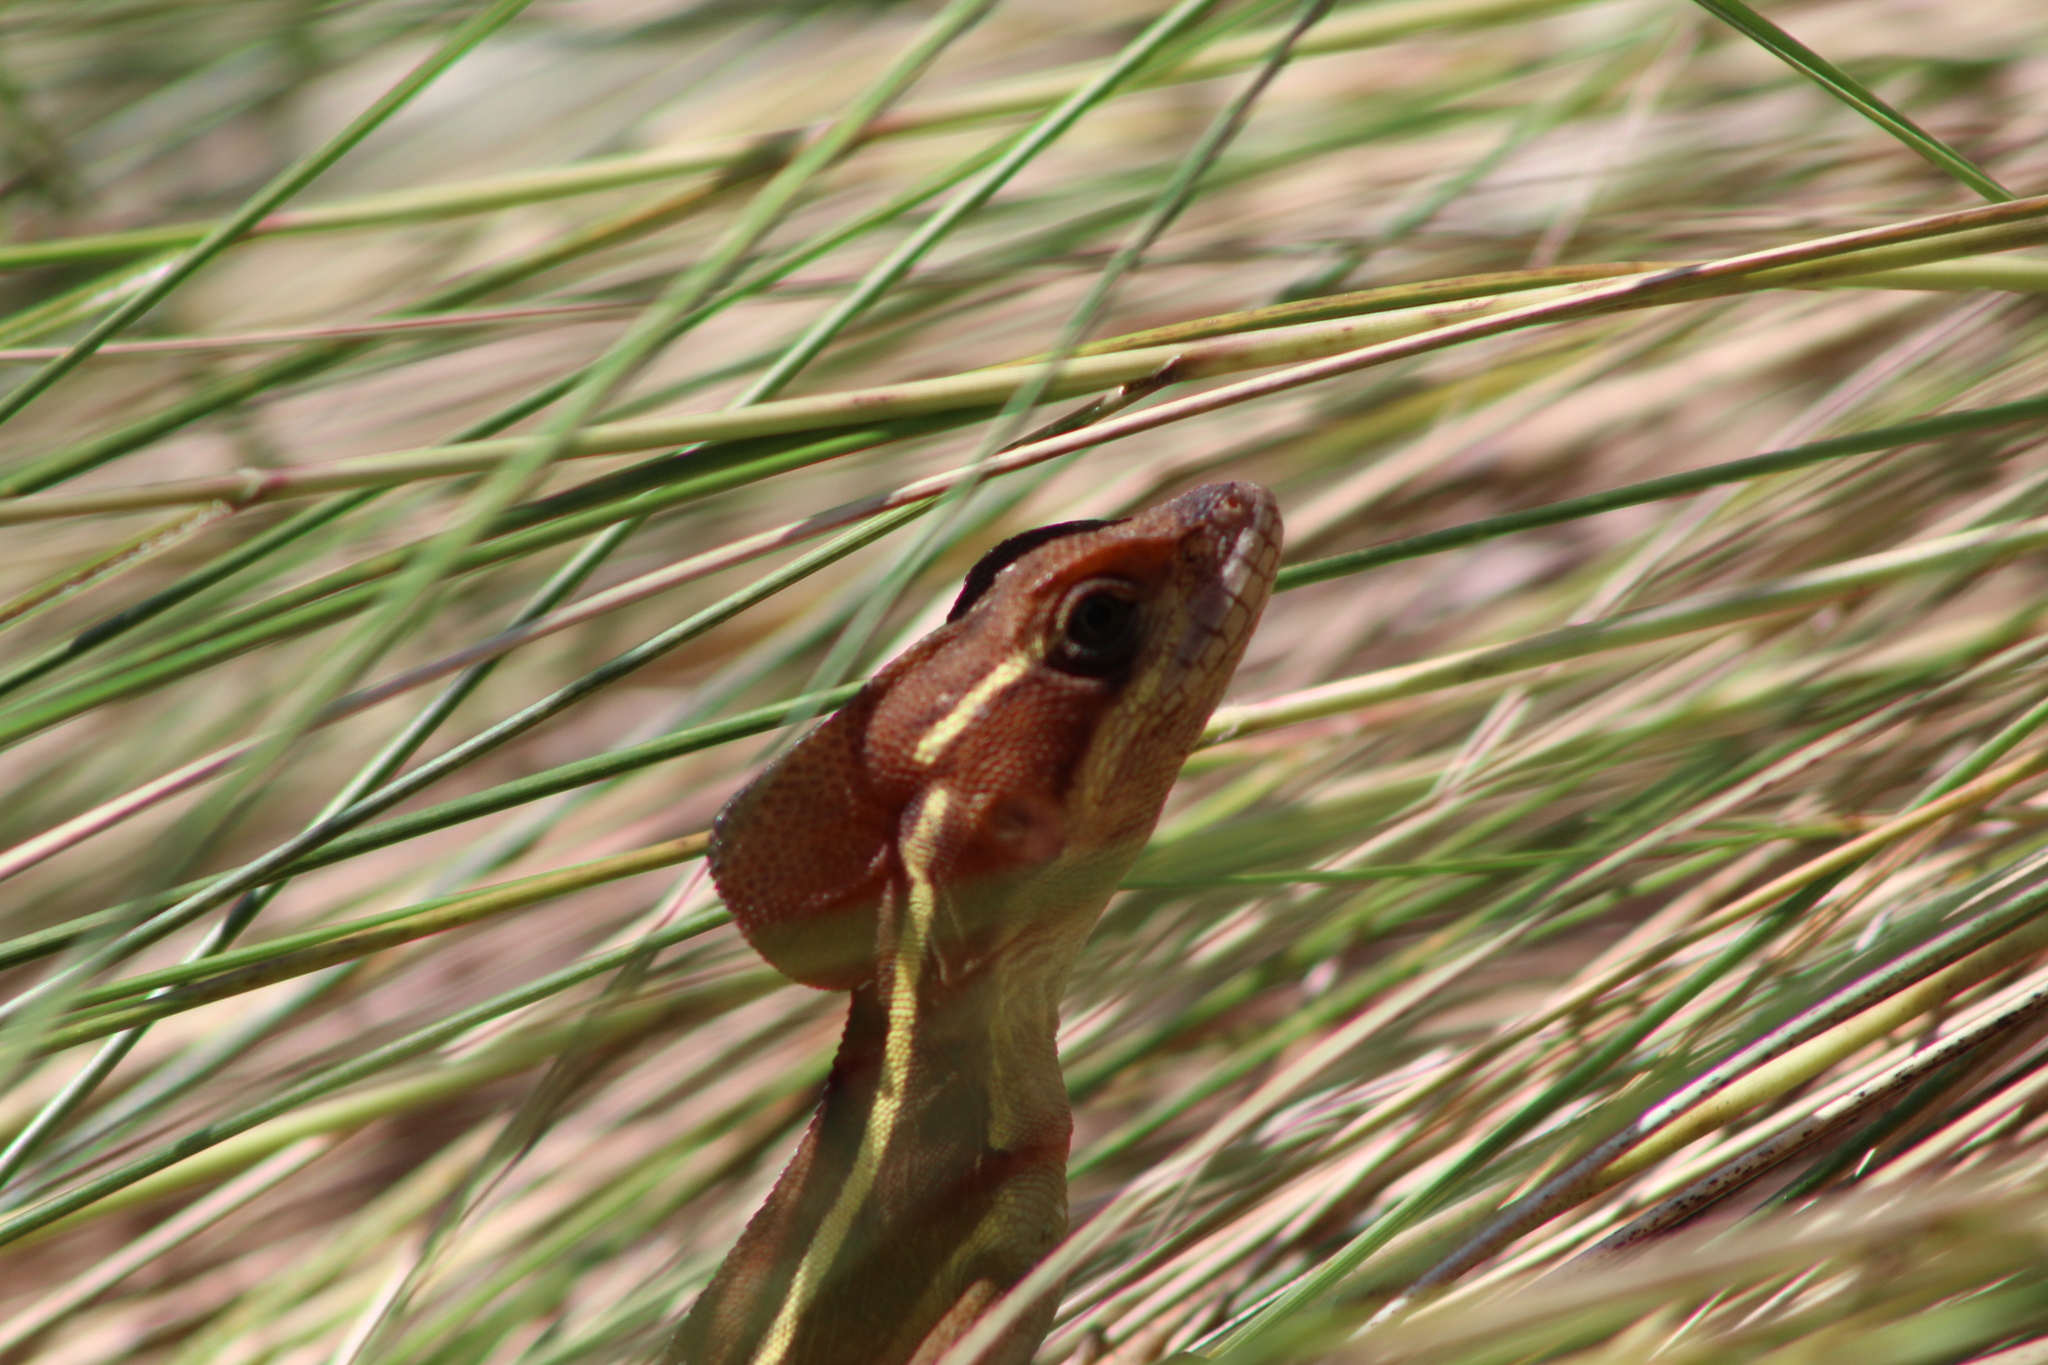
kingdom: Animalia
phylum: Chordata
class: Squamata
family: Corytophanidae
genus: Basiliscus
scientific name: Basiliscus vittatus
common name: Brown basilisk
